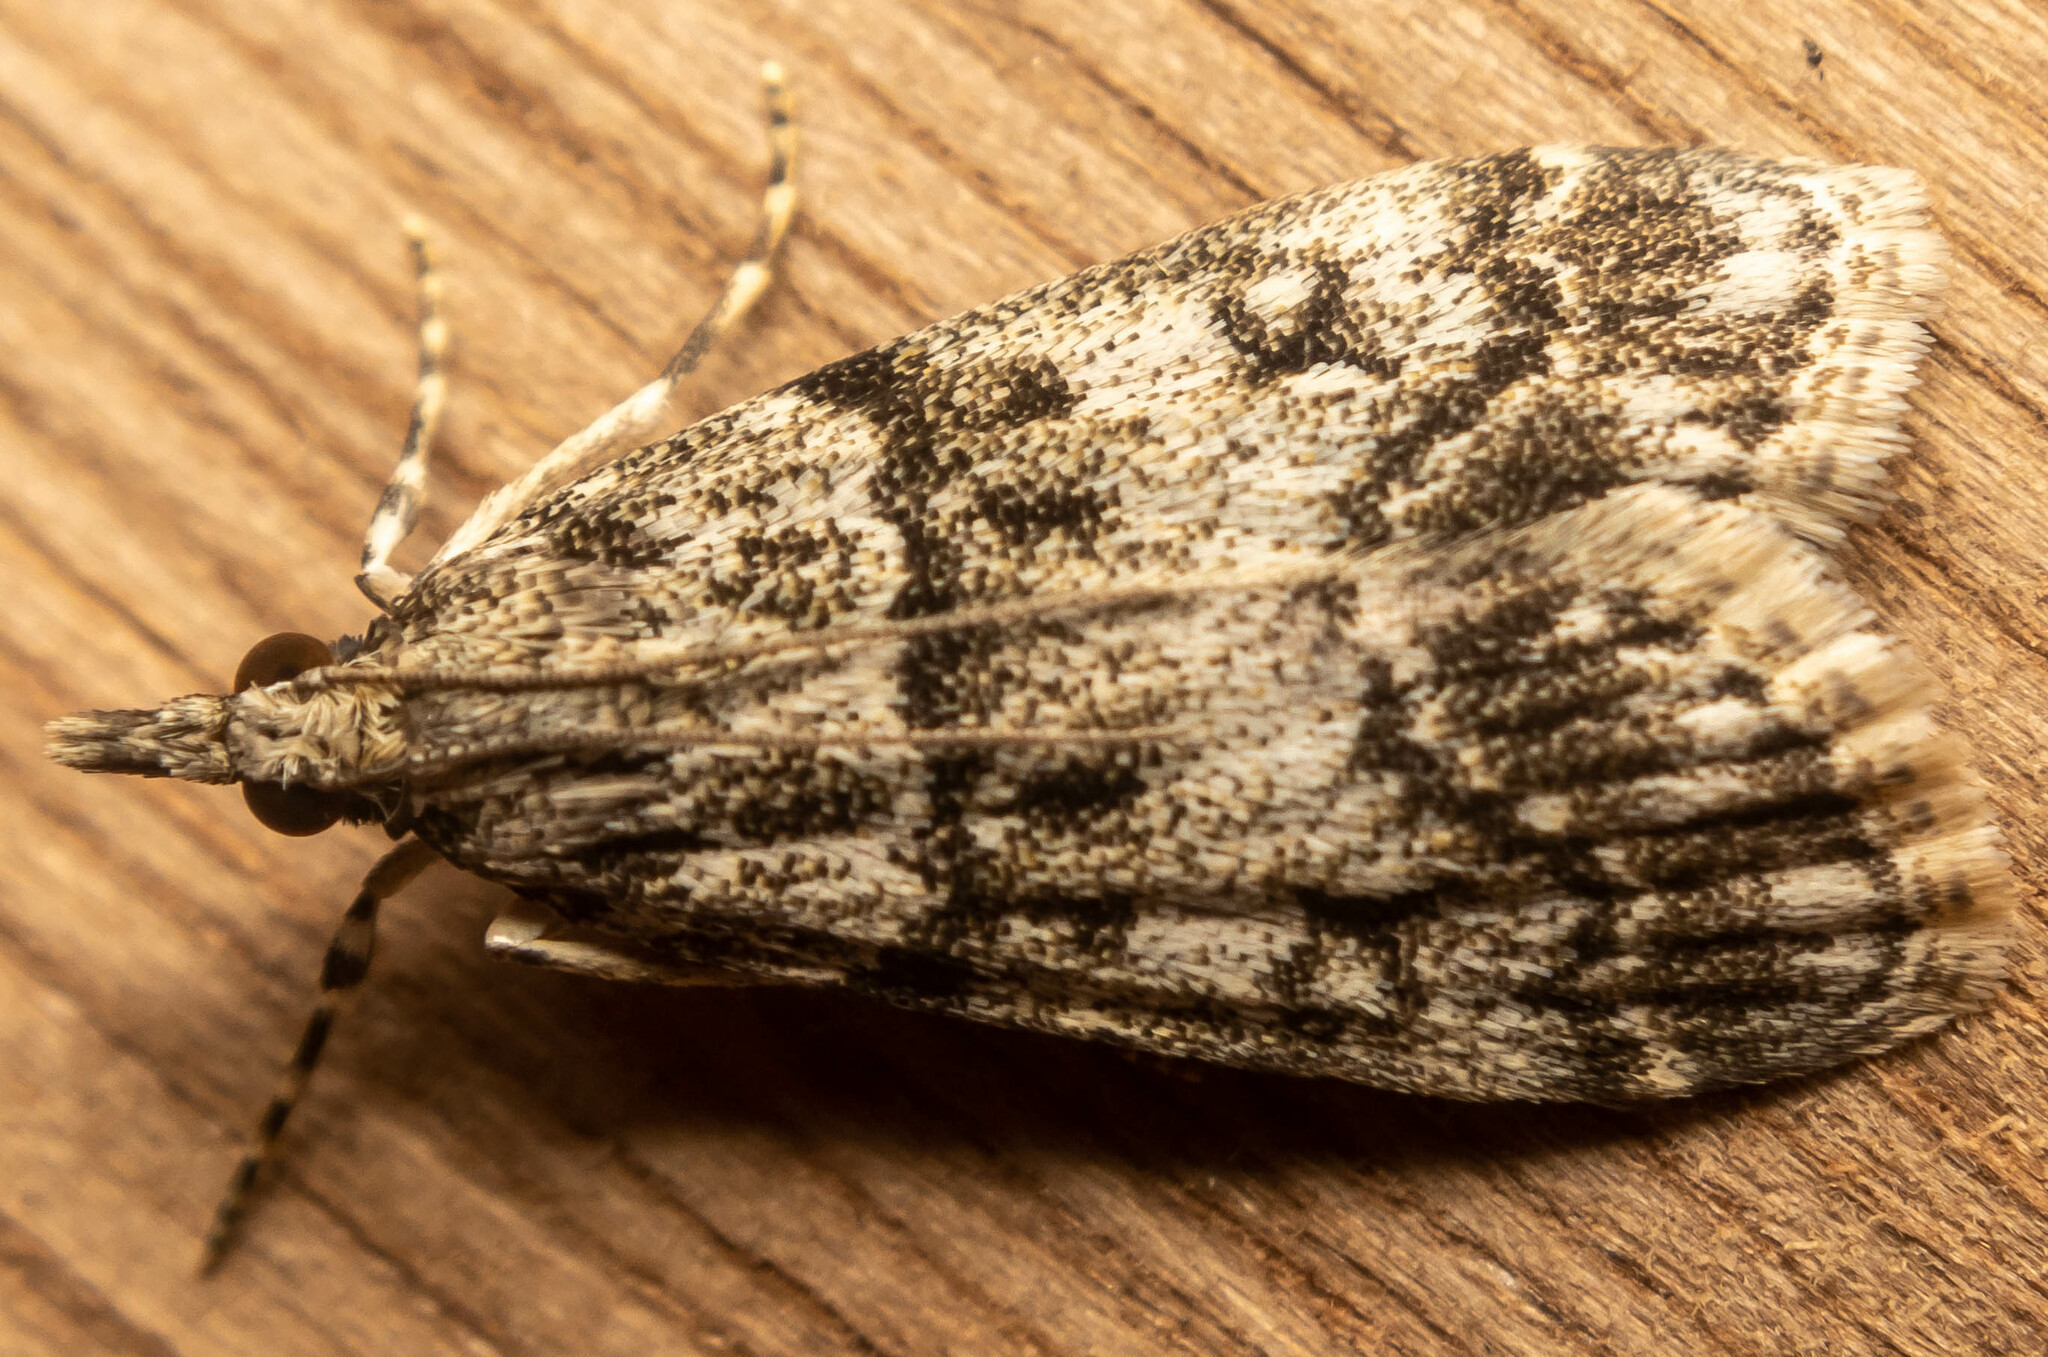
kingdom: Animalia
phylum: Arthropoda
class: Insecta
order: Lepidoptera
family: Crambidae
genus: Eudonia
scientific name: Eudonia lacustrata
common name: Little grey
